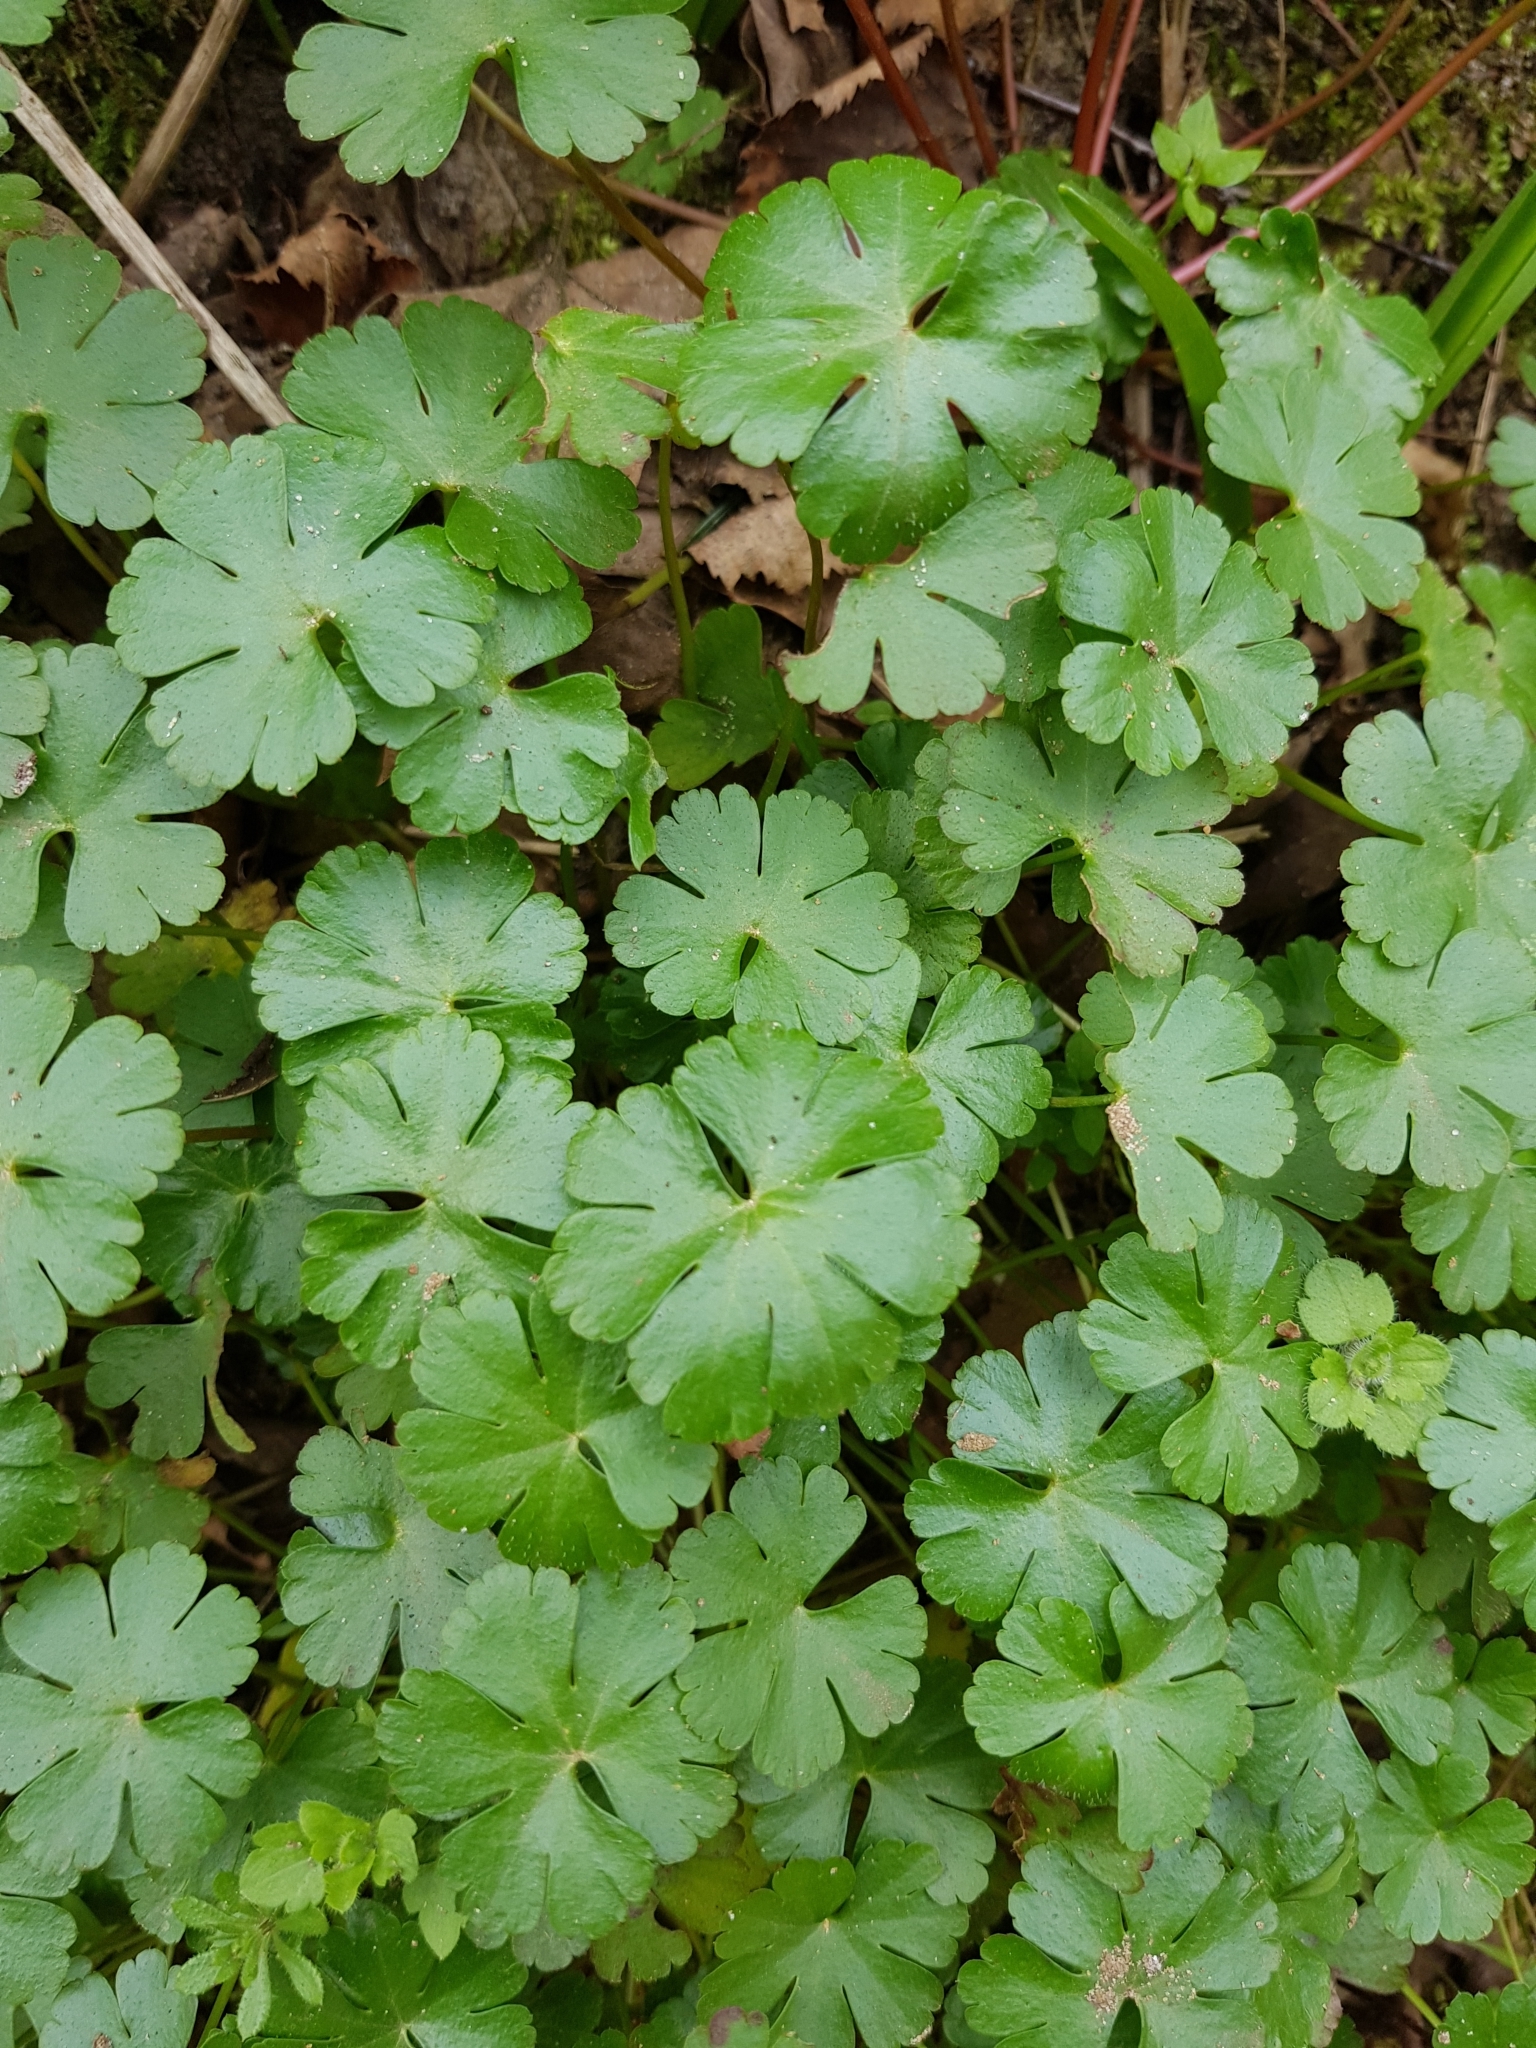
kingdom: Plantae
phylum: Tracheophyta
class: Magnoliopsida
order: Geraniales
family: Geraniaceae
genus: Geranium
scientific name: Geranium lucidum
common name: Shining crane's-bill
